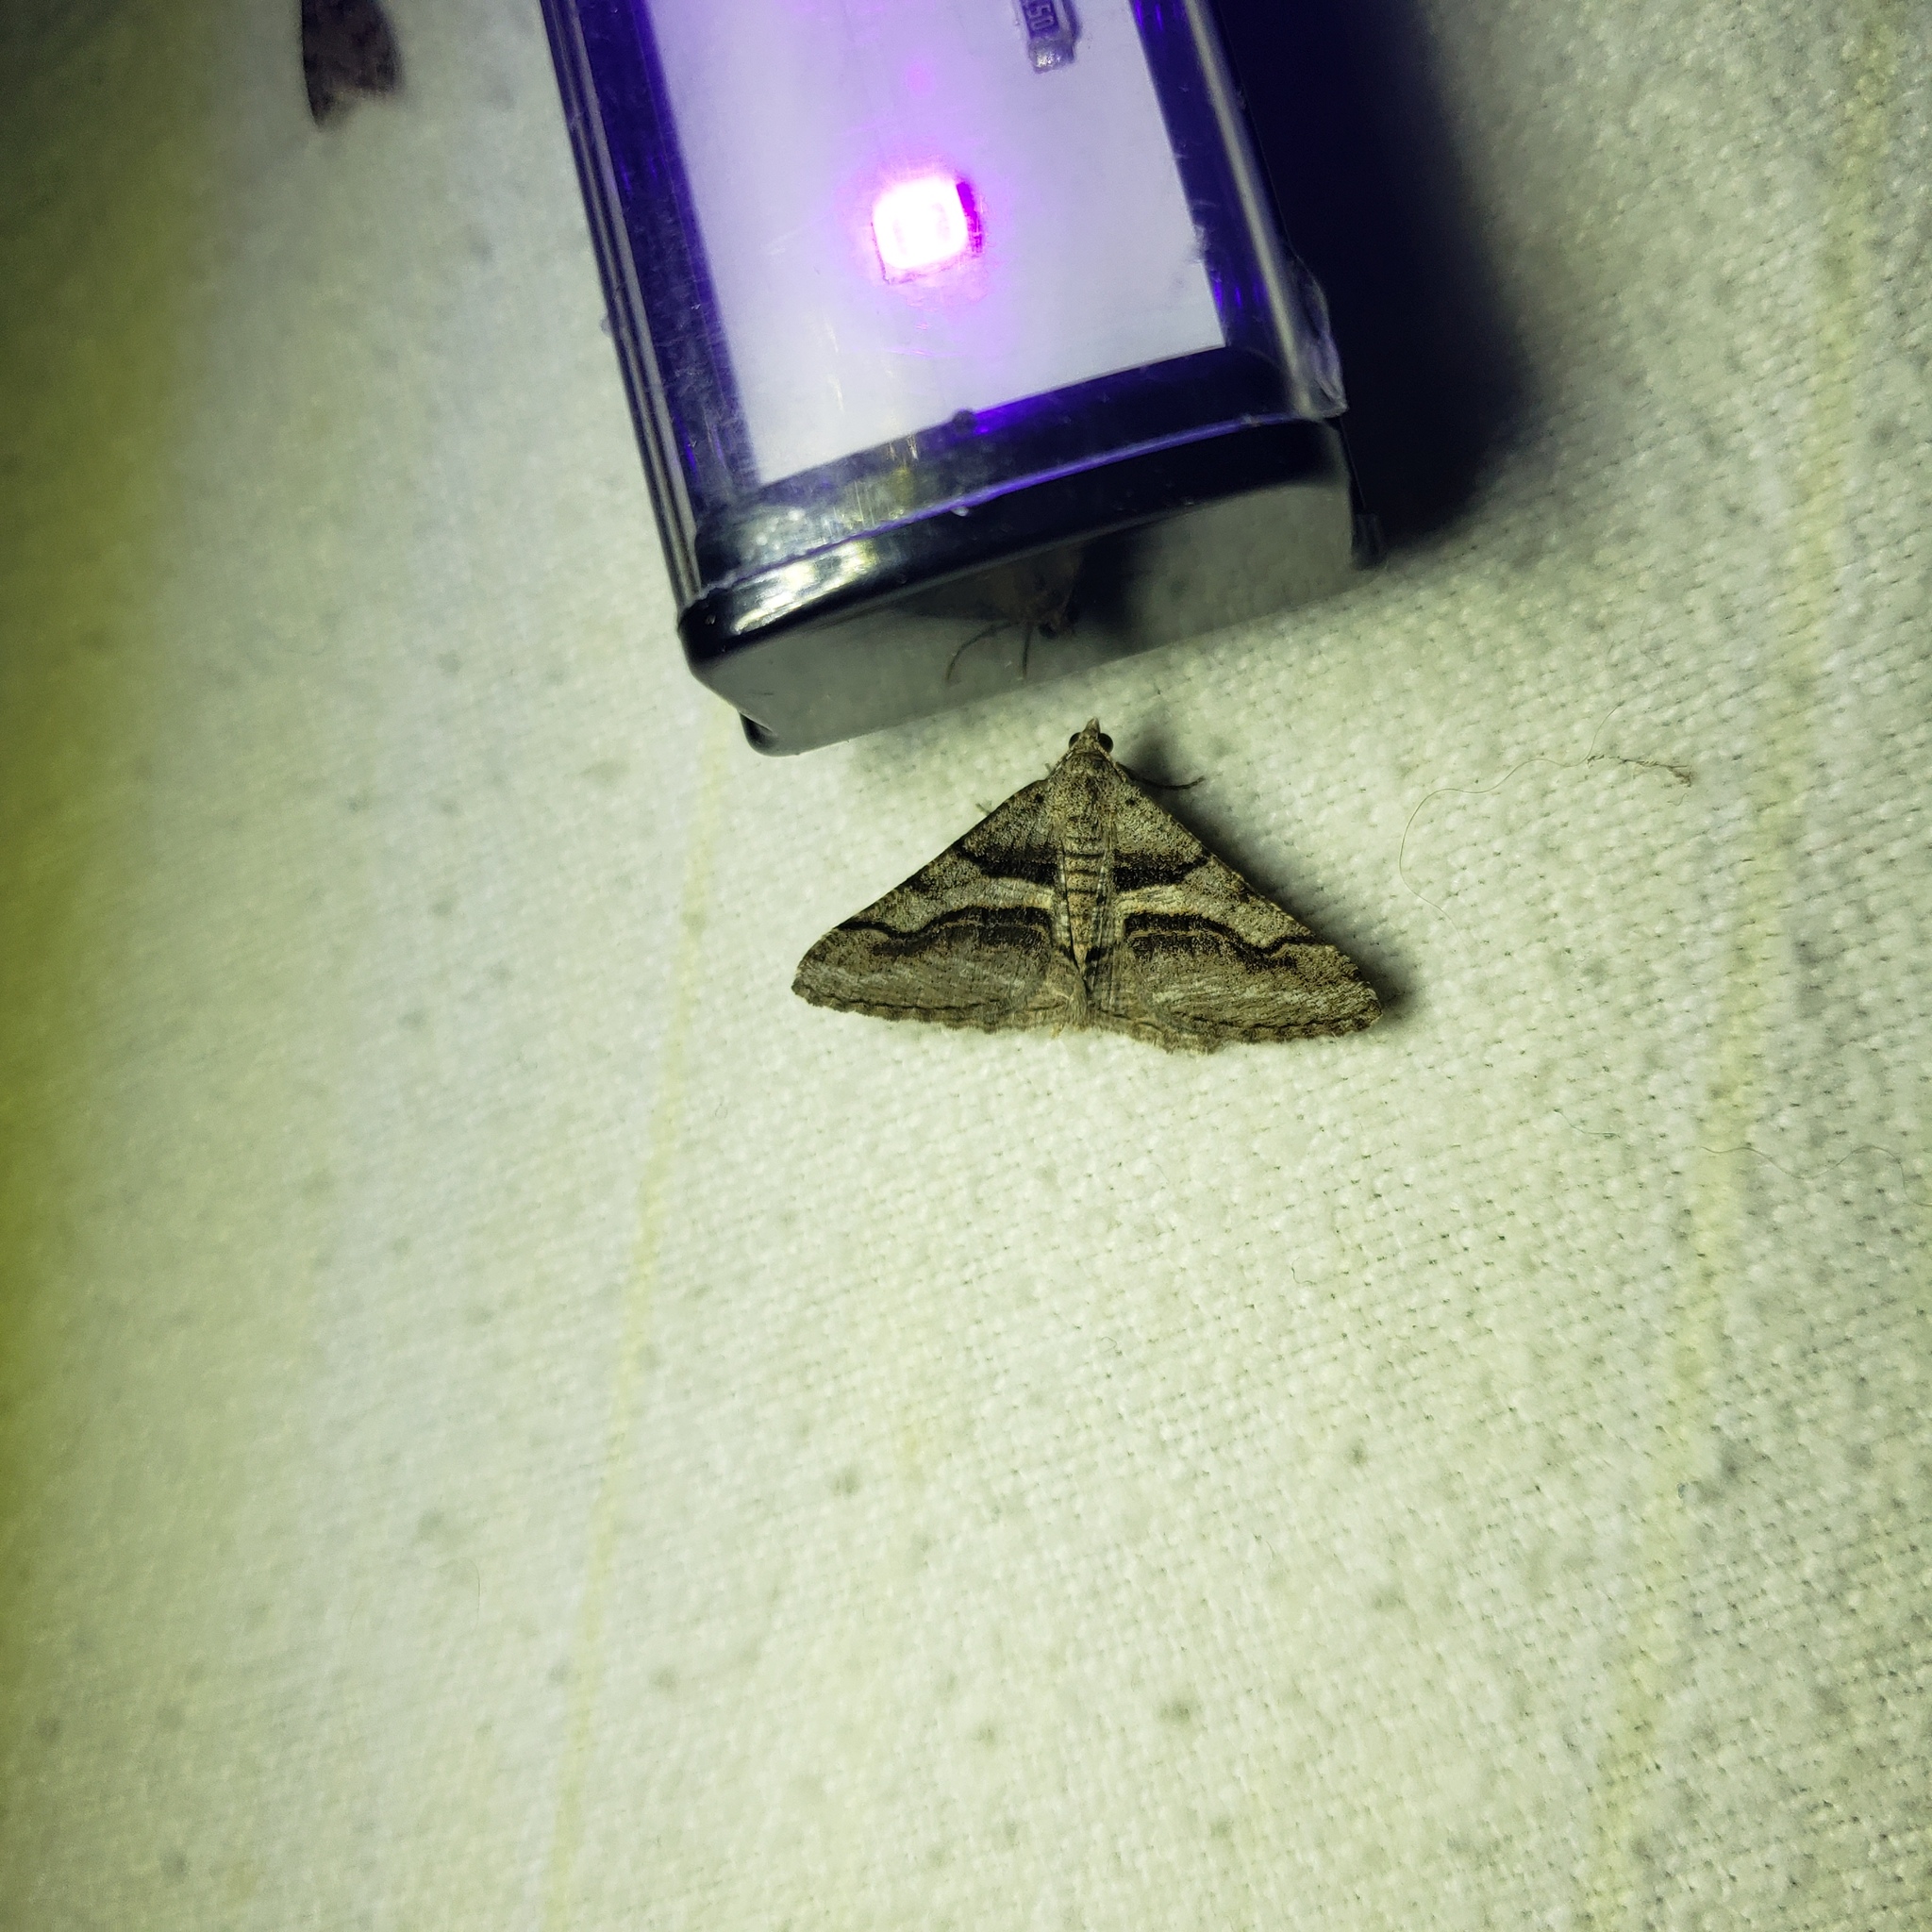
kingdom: Animalia
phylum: Arthropoda
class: Insecta
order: Lepidoptera
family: Geometridae
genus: Digrammia
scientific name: Digrammia continuata
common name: Curve-lined angle
